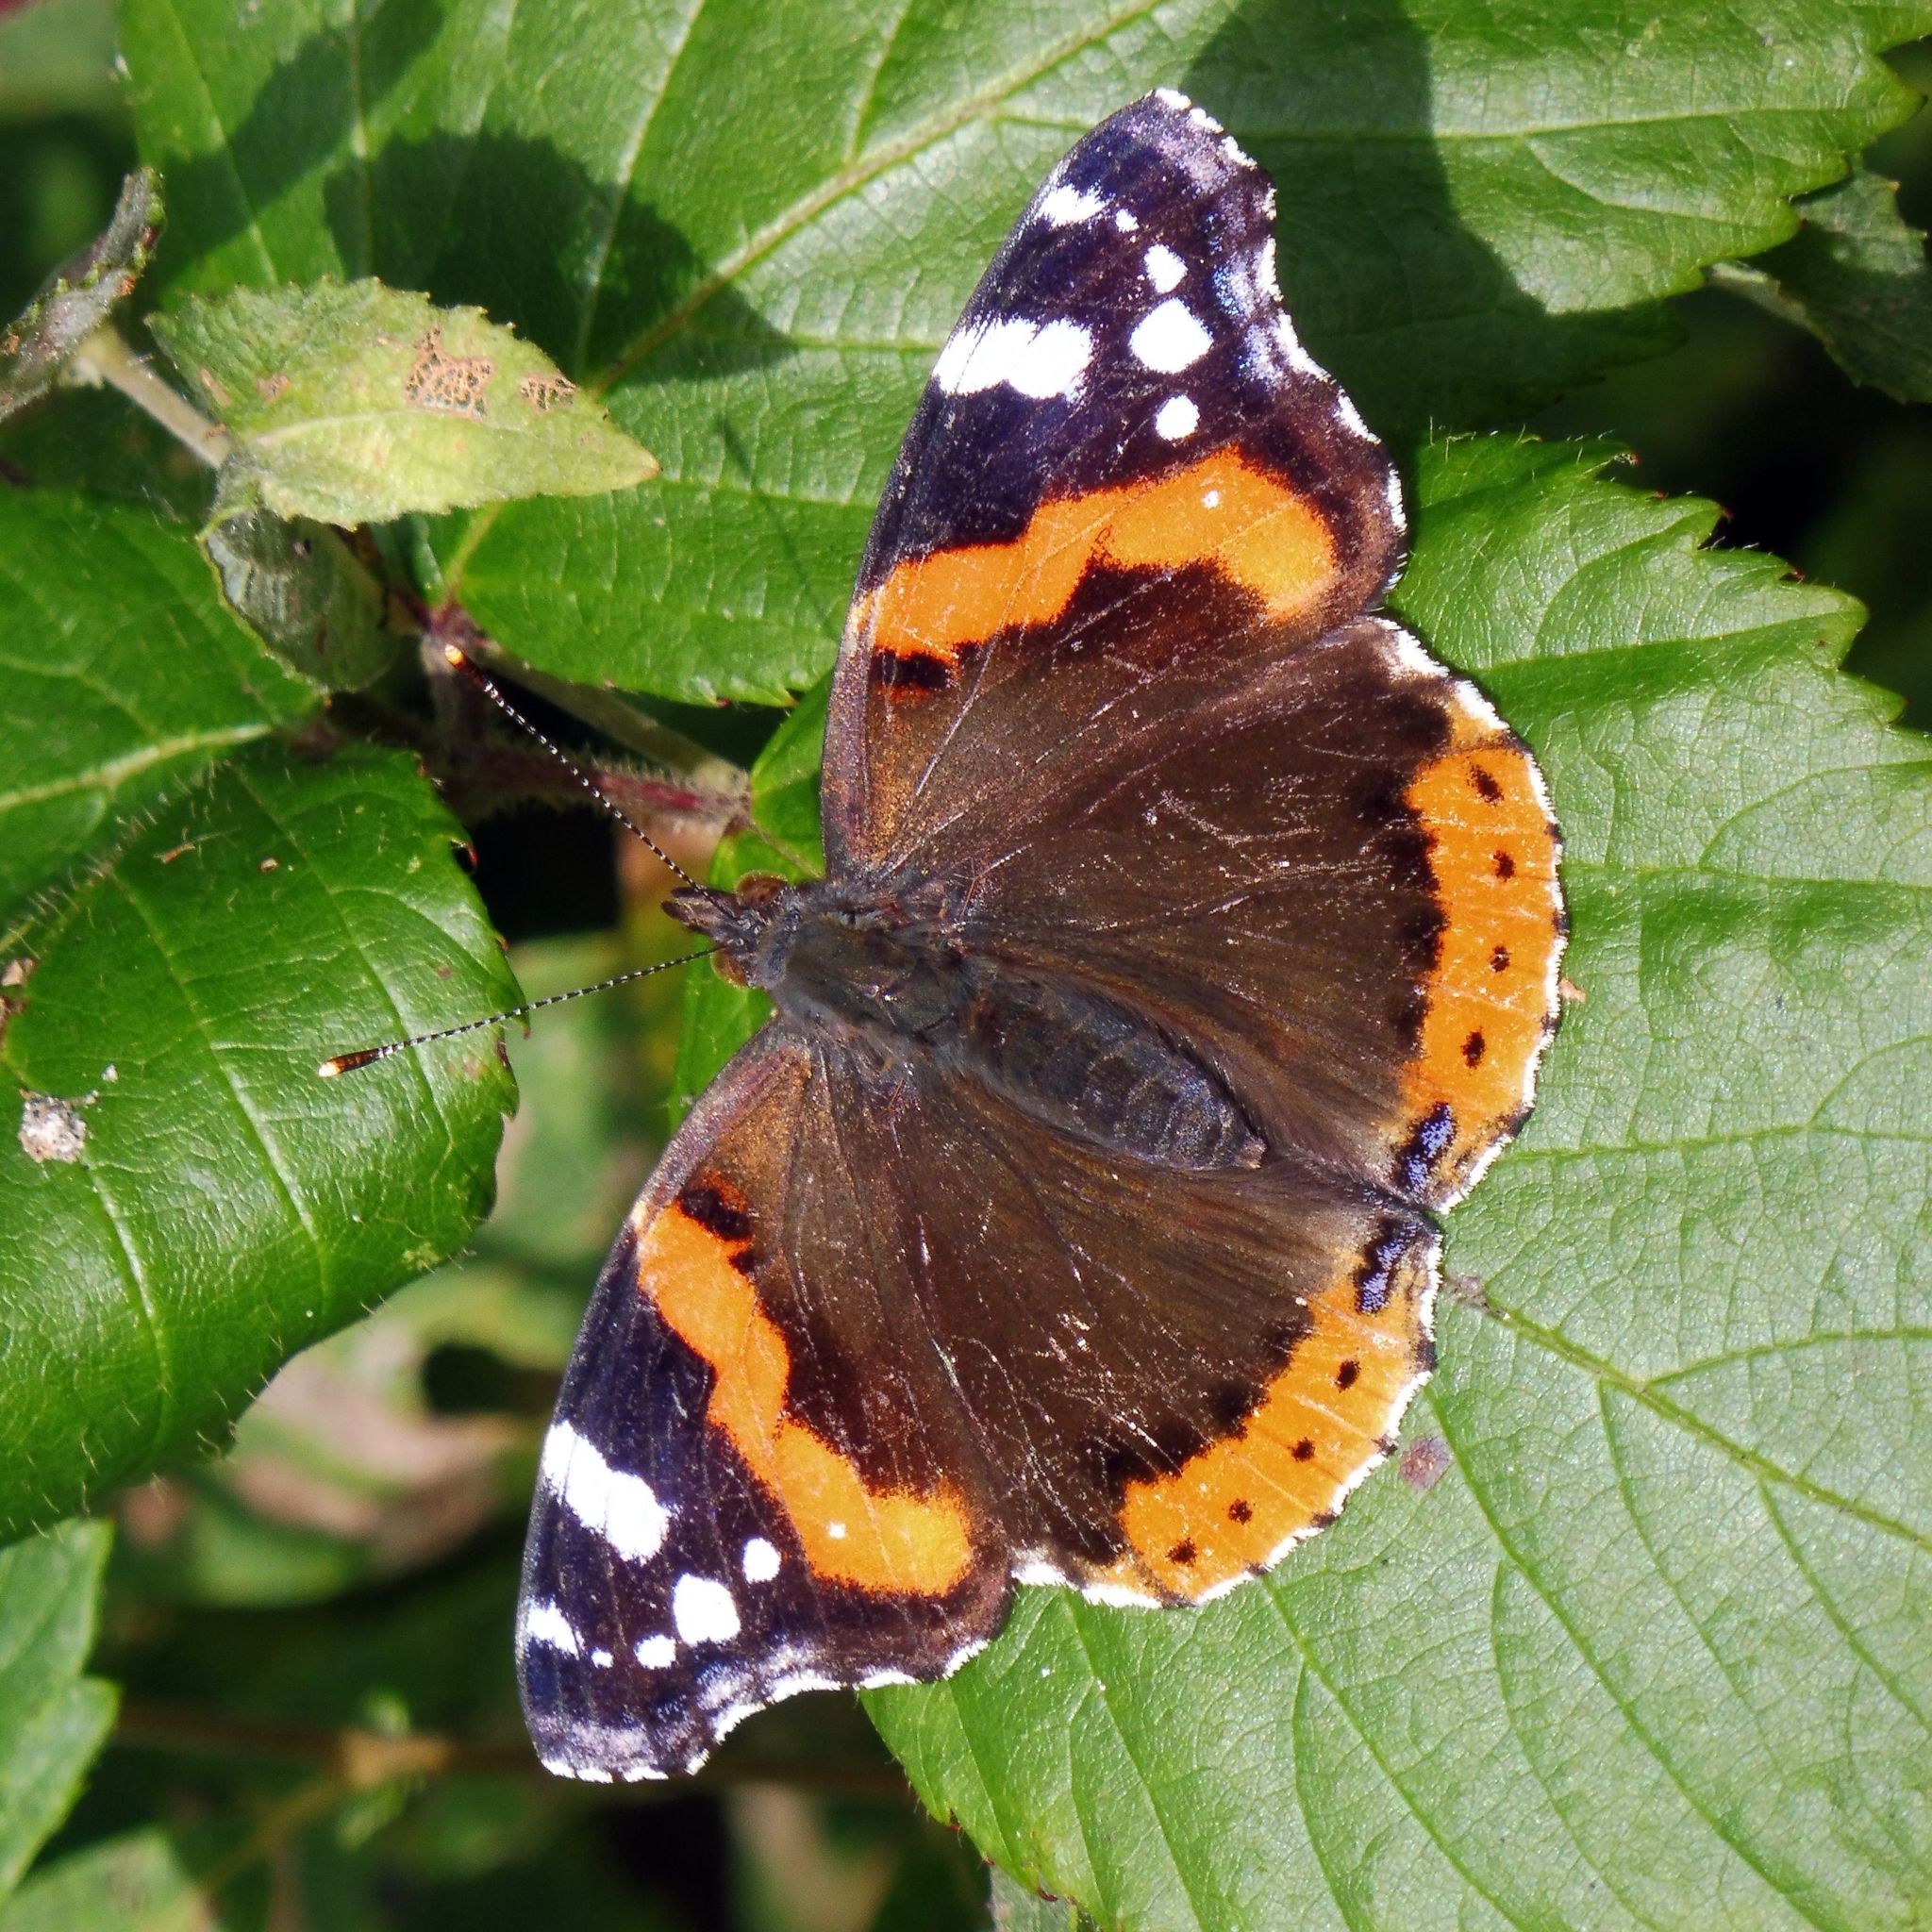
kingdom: Animalia
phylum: Arthropoda
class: Insecta
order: Lepidoptera
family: Nymphalidae
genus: Vanessa
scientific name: Vanessa atalanta
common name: Red admiral
